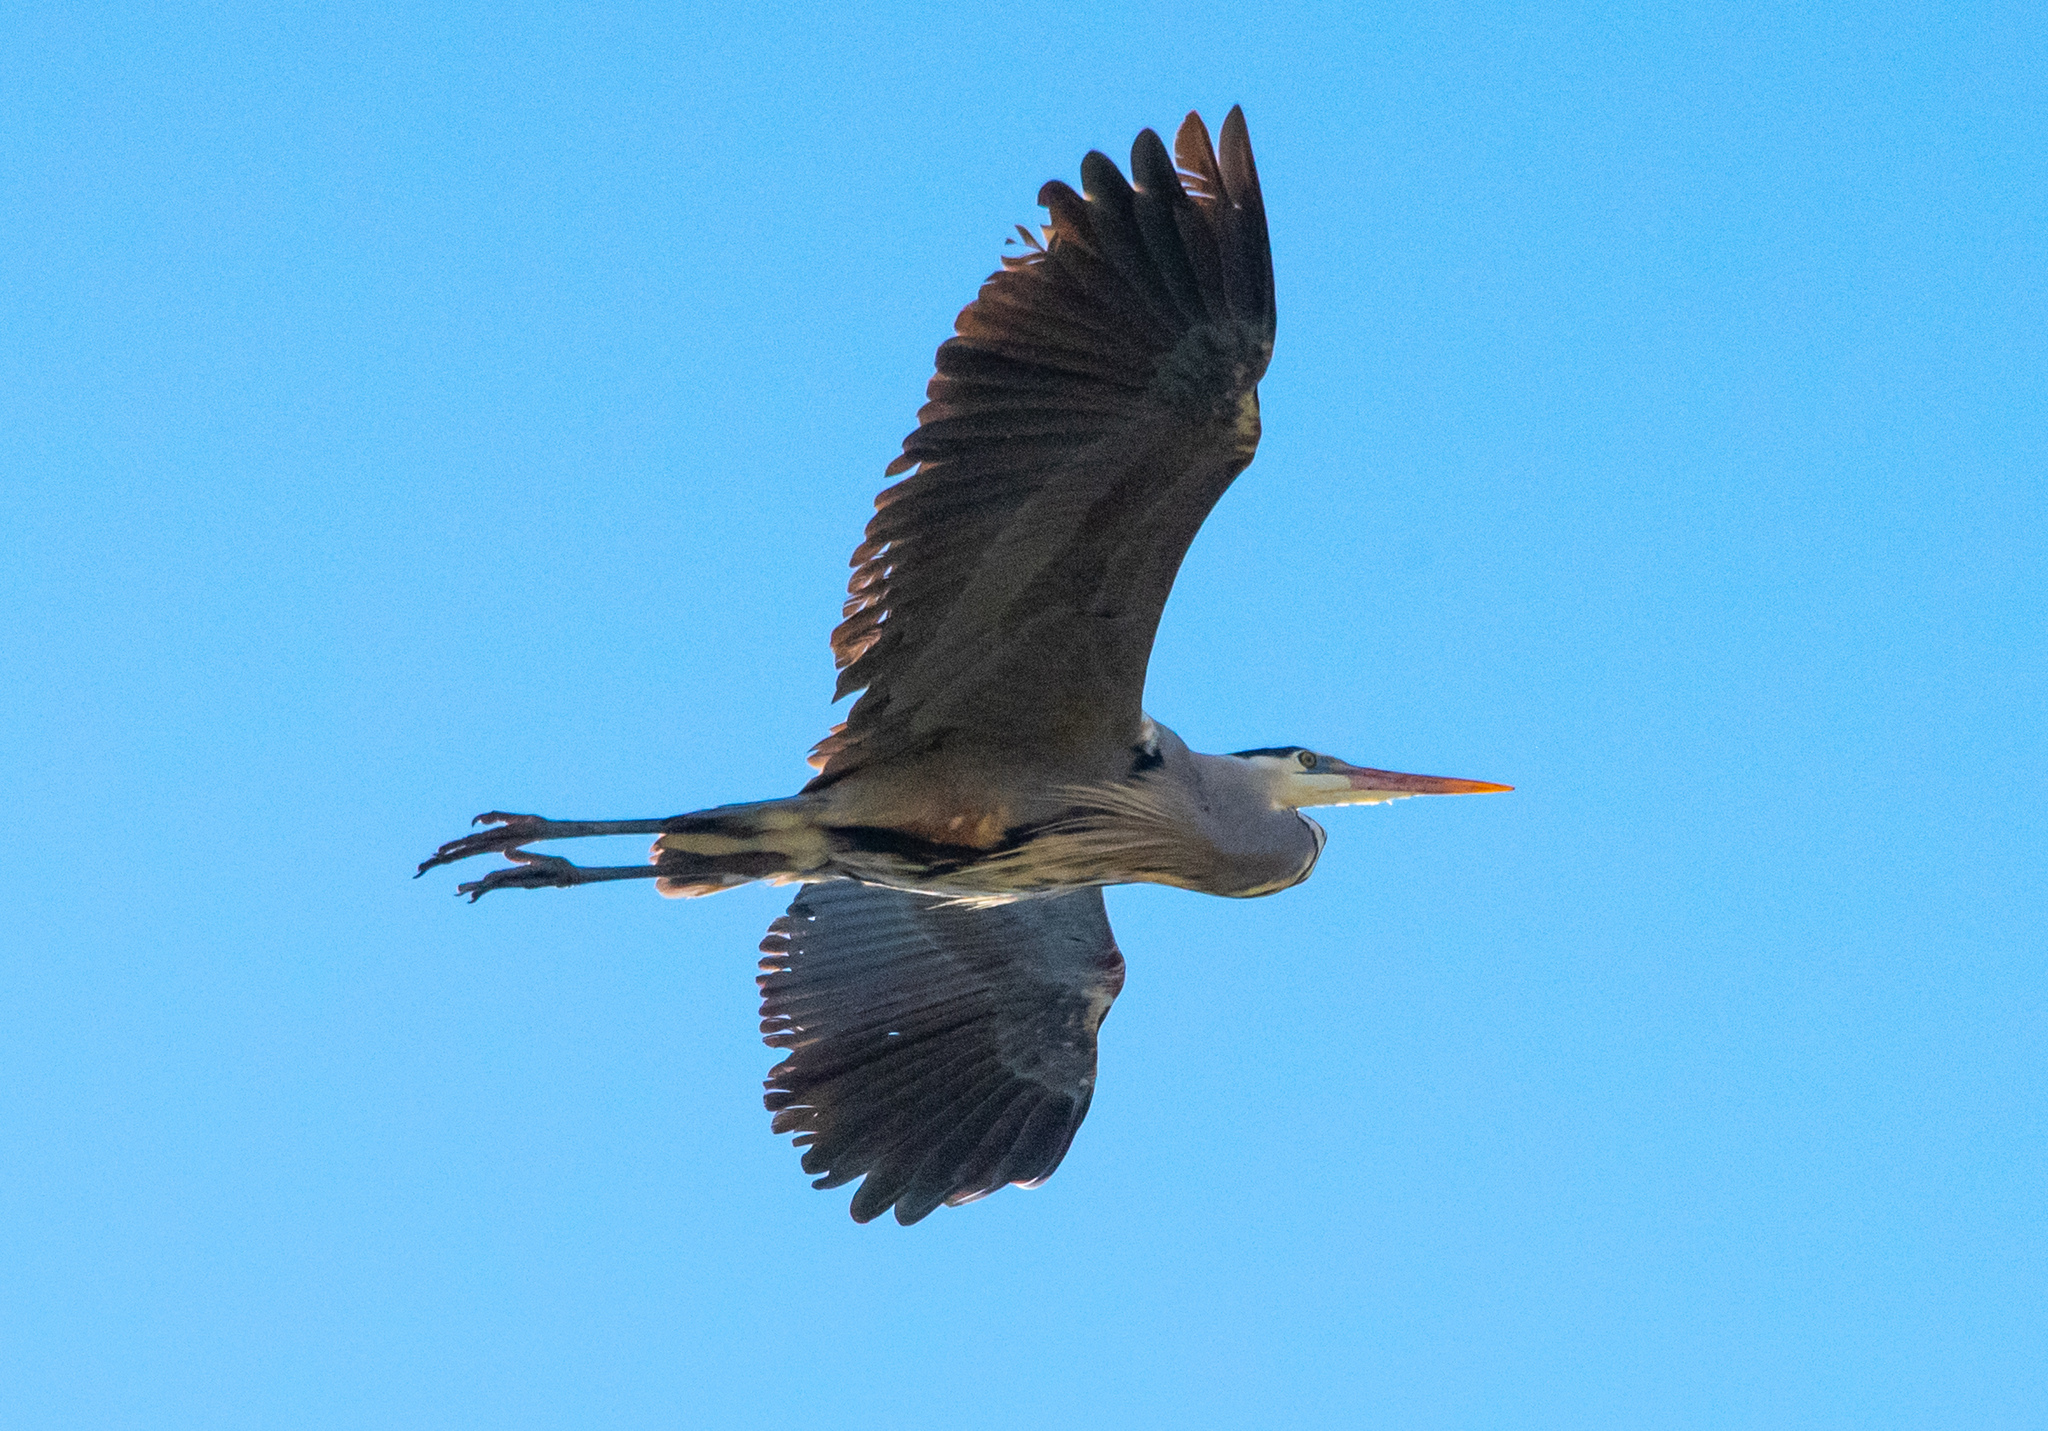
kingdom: Animalia
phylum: Chordata
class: Aves
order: Pelecaniformes
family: Ardeidae
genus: Ardea
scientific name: Ardea herodias
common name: Great blue heron
